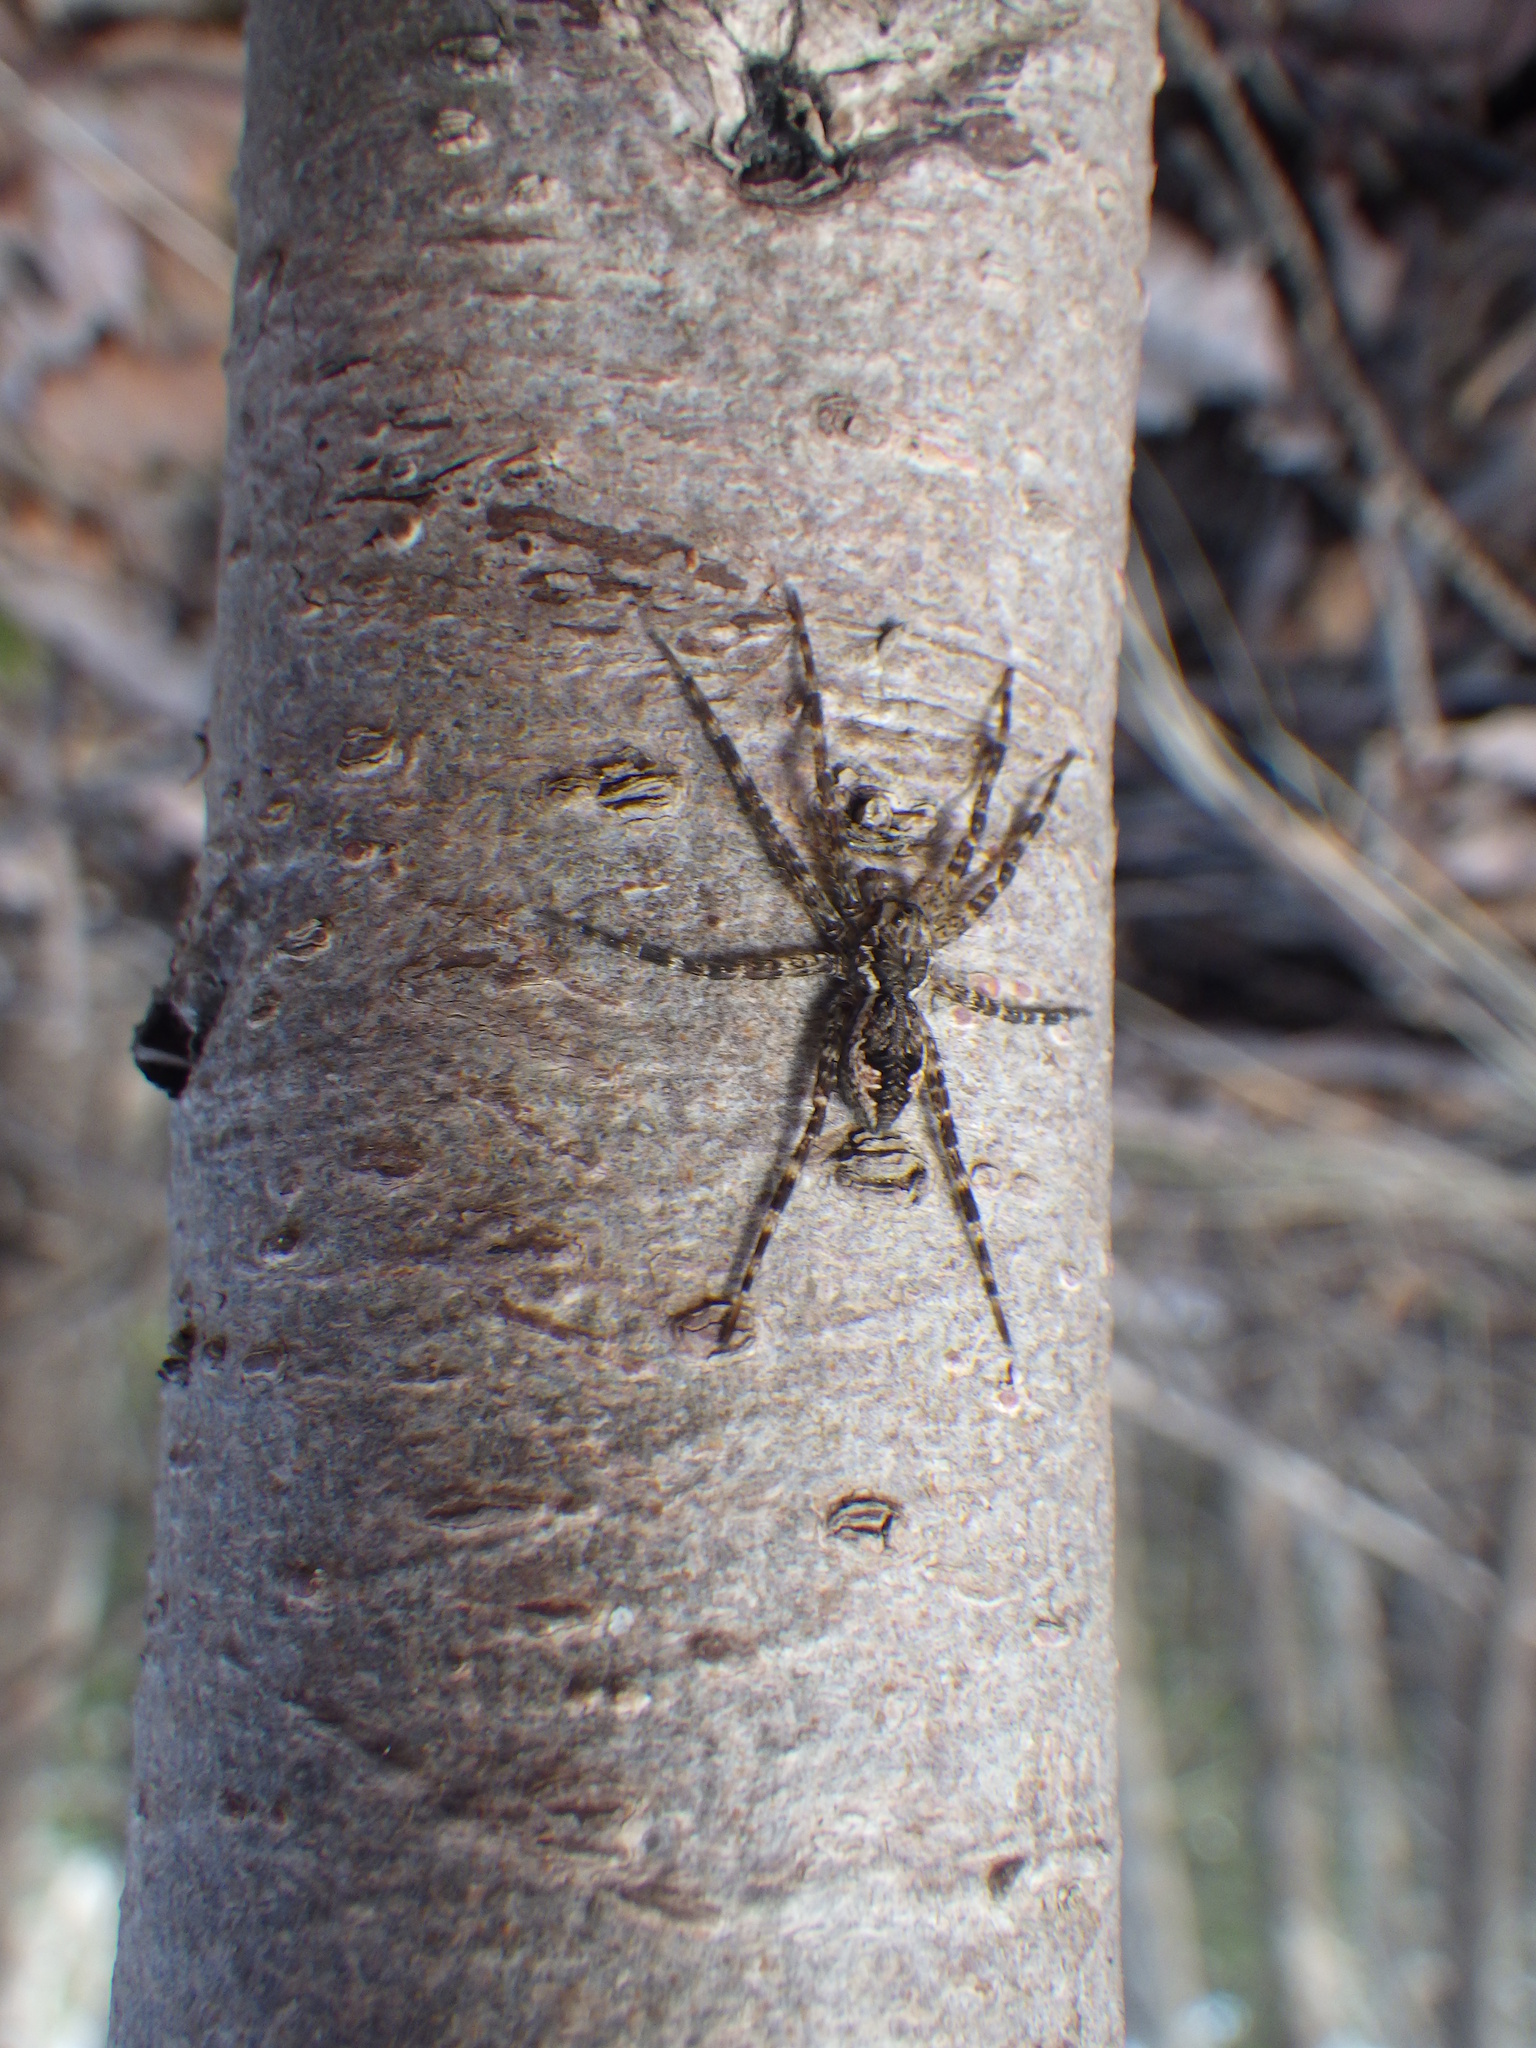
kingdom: Animalia
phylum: Arthropoda
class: Arachnida
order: Araneae
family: Pisauridae
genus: Dolomedes
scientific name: Dolomedes tenebrosus
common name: Dark fishing spider
